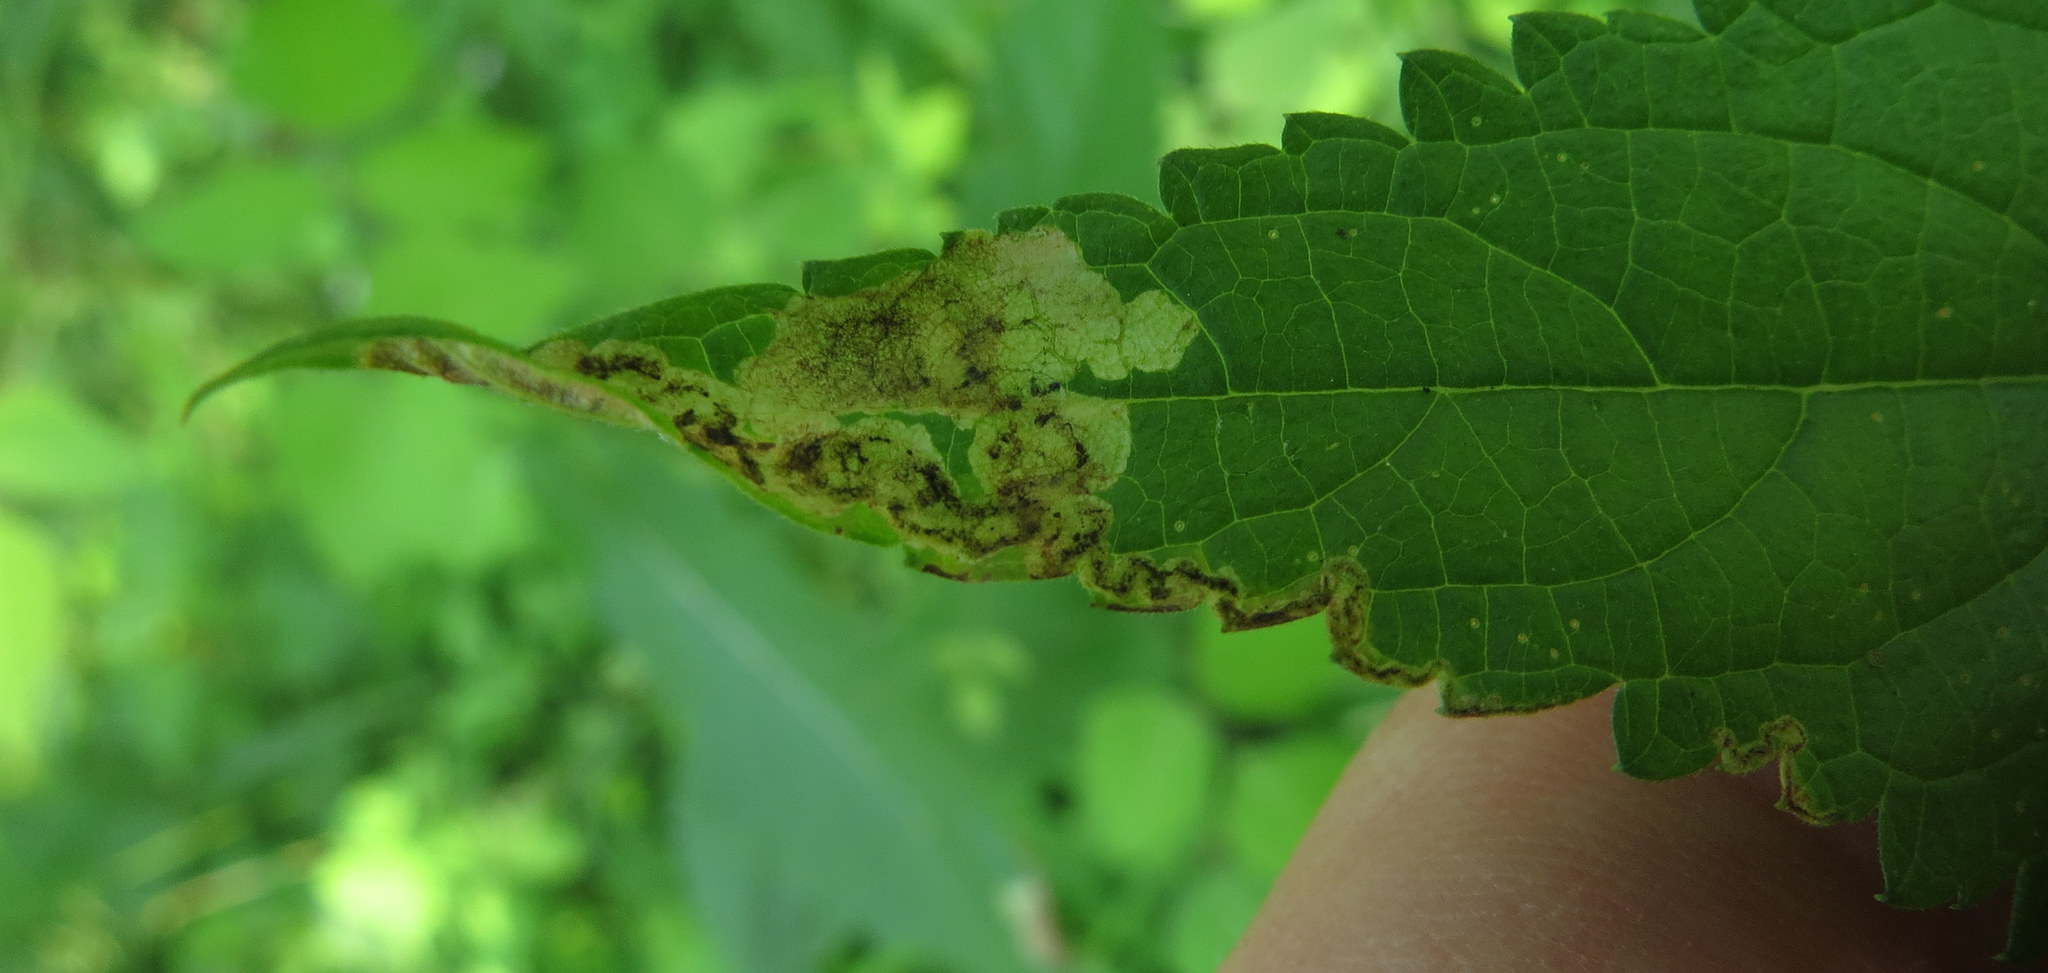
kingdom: Animalia
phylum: Arthropoda
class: Insecta
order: Diptera
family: Agromyzidae
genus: Calycomyza
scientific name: Calycomyza verbenae
